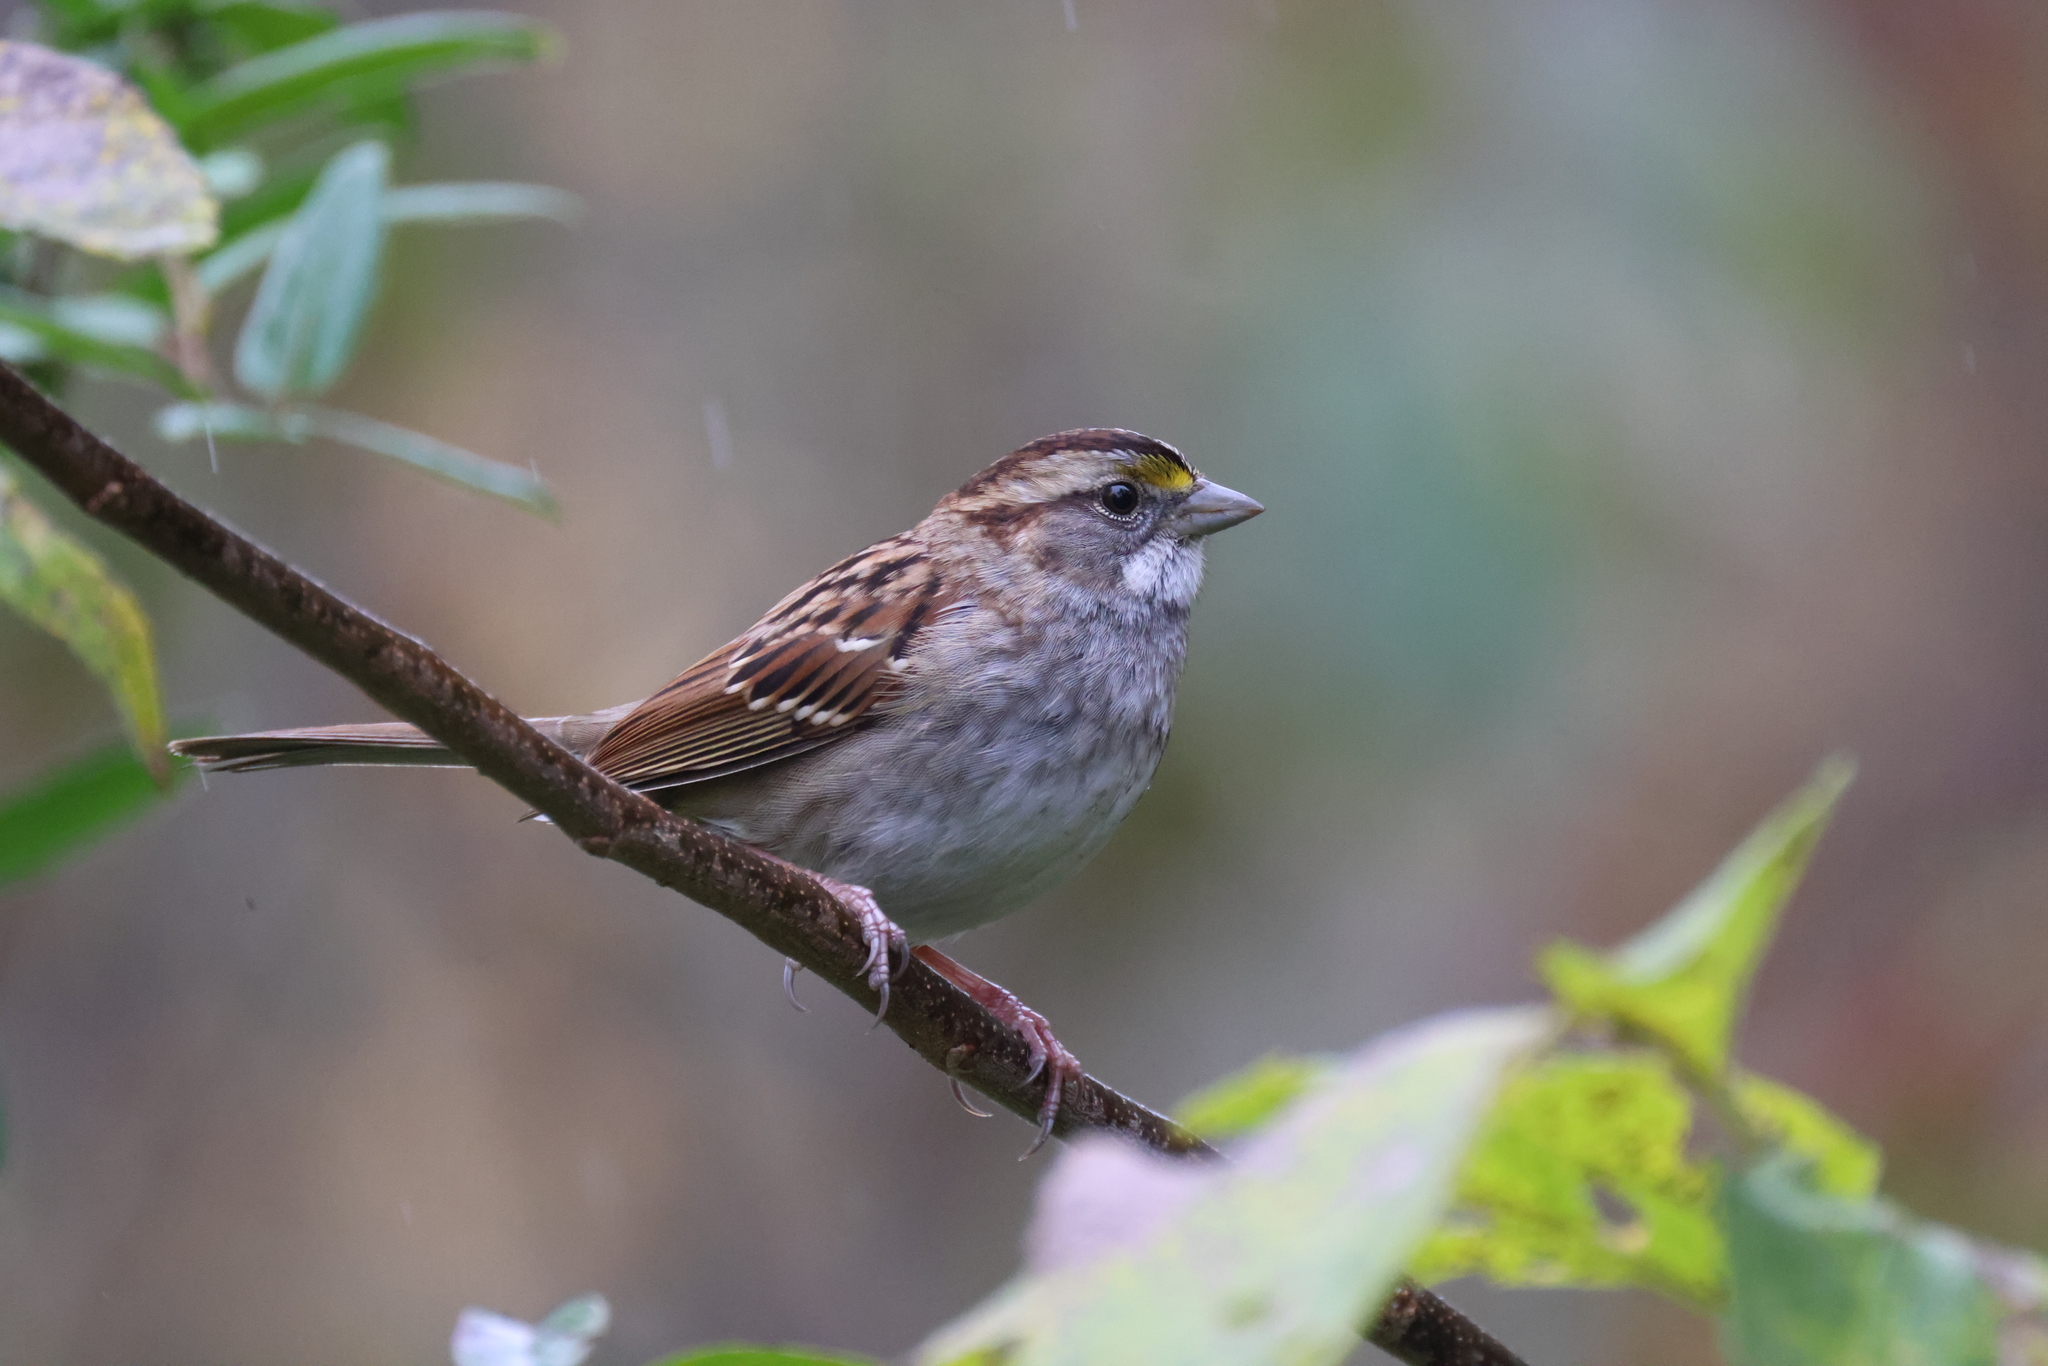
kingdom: Animalia
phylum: Chordata
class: Aves
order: Passeriformes
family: Passerellidae
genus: Zonotrichia
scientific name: Zonotrichia albicollis
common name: White-throated sparrow
